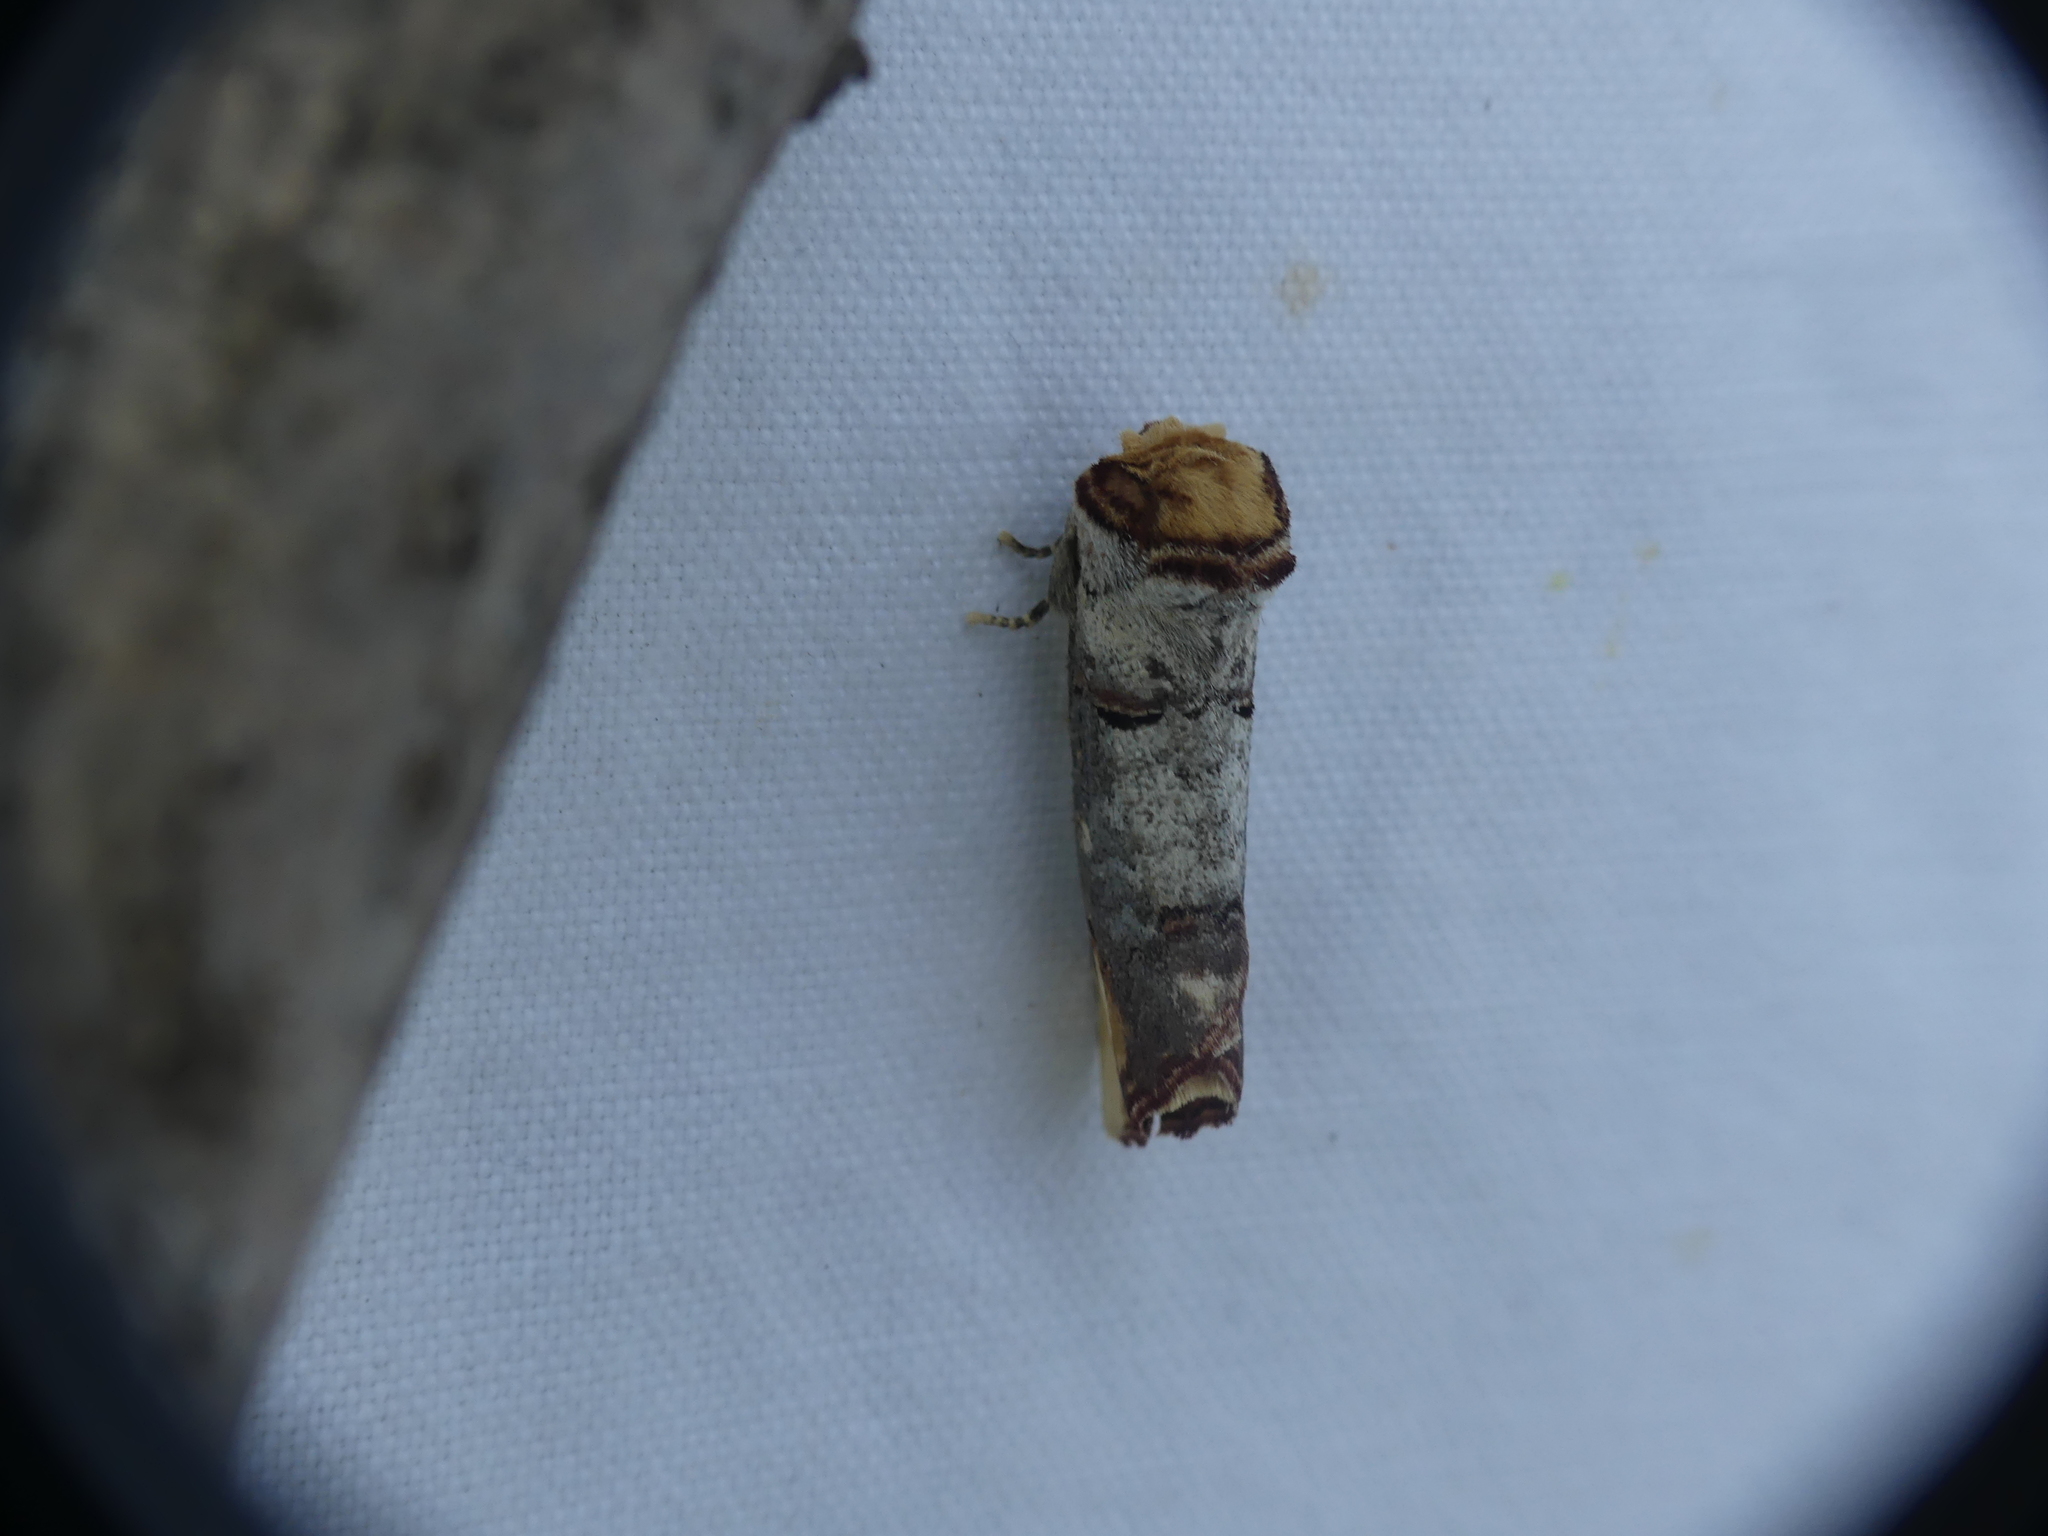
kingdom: Animalia
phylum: Arthropoda
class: Insecta
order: Lepidoptera
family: Notodontidae
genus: Phalera
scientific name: Phalera bucephala
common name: Buff-tip
